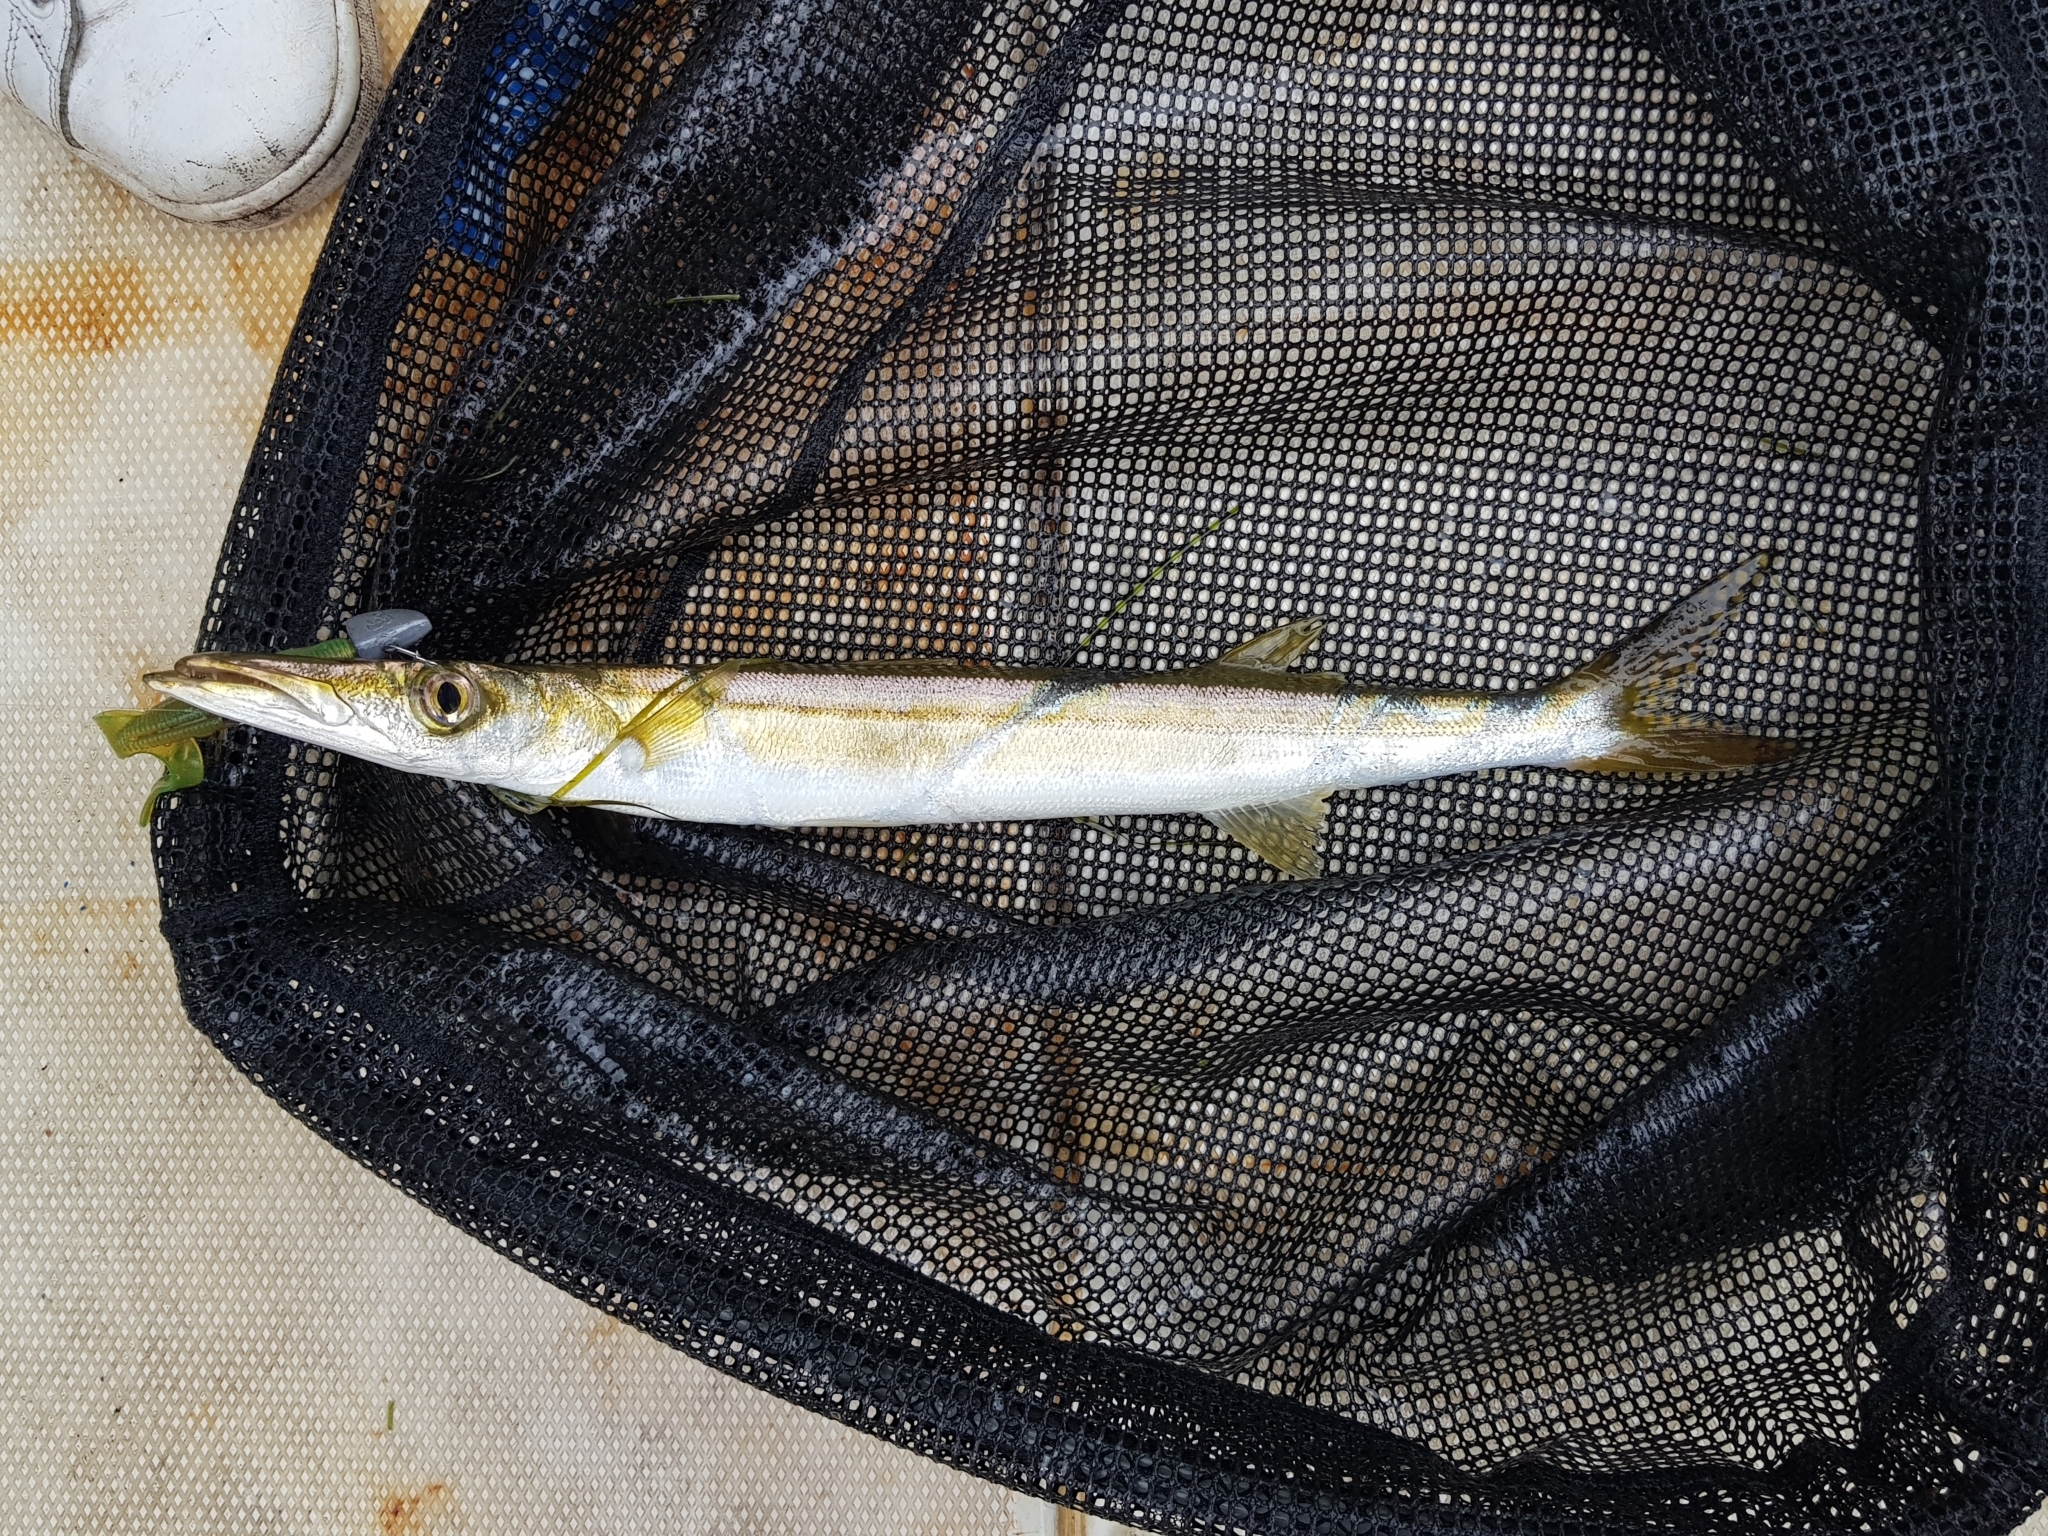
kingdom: Animalia
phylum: Chordata
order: Perciformes
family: Sphyraenidae
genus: Sphyraena
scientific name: Sphyraena novaehollandiae
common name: Arrow barracuda
